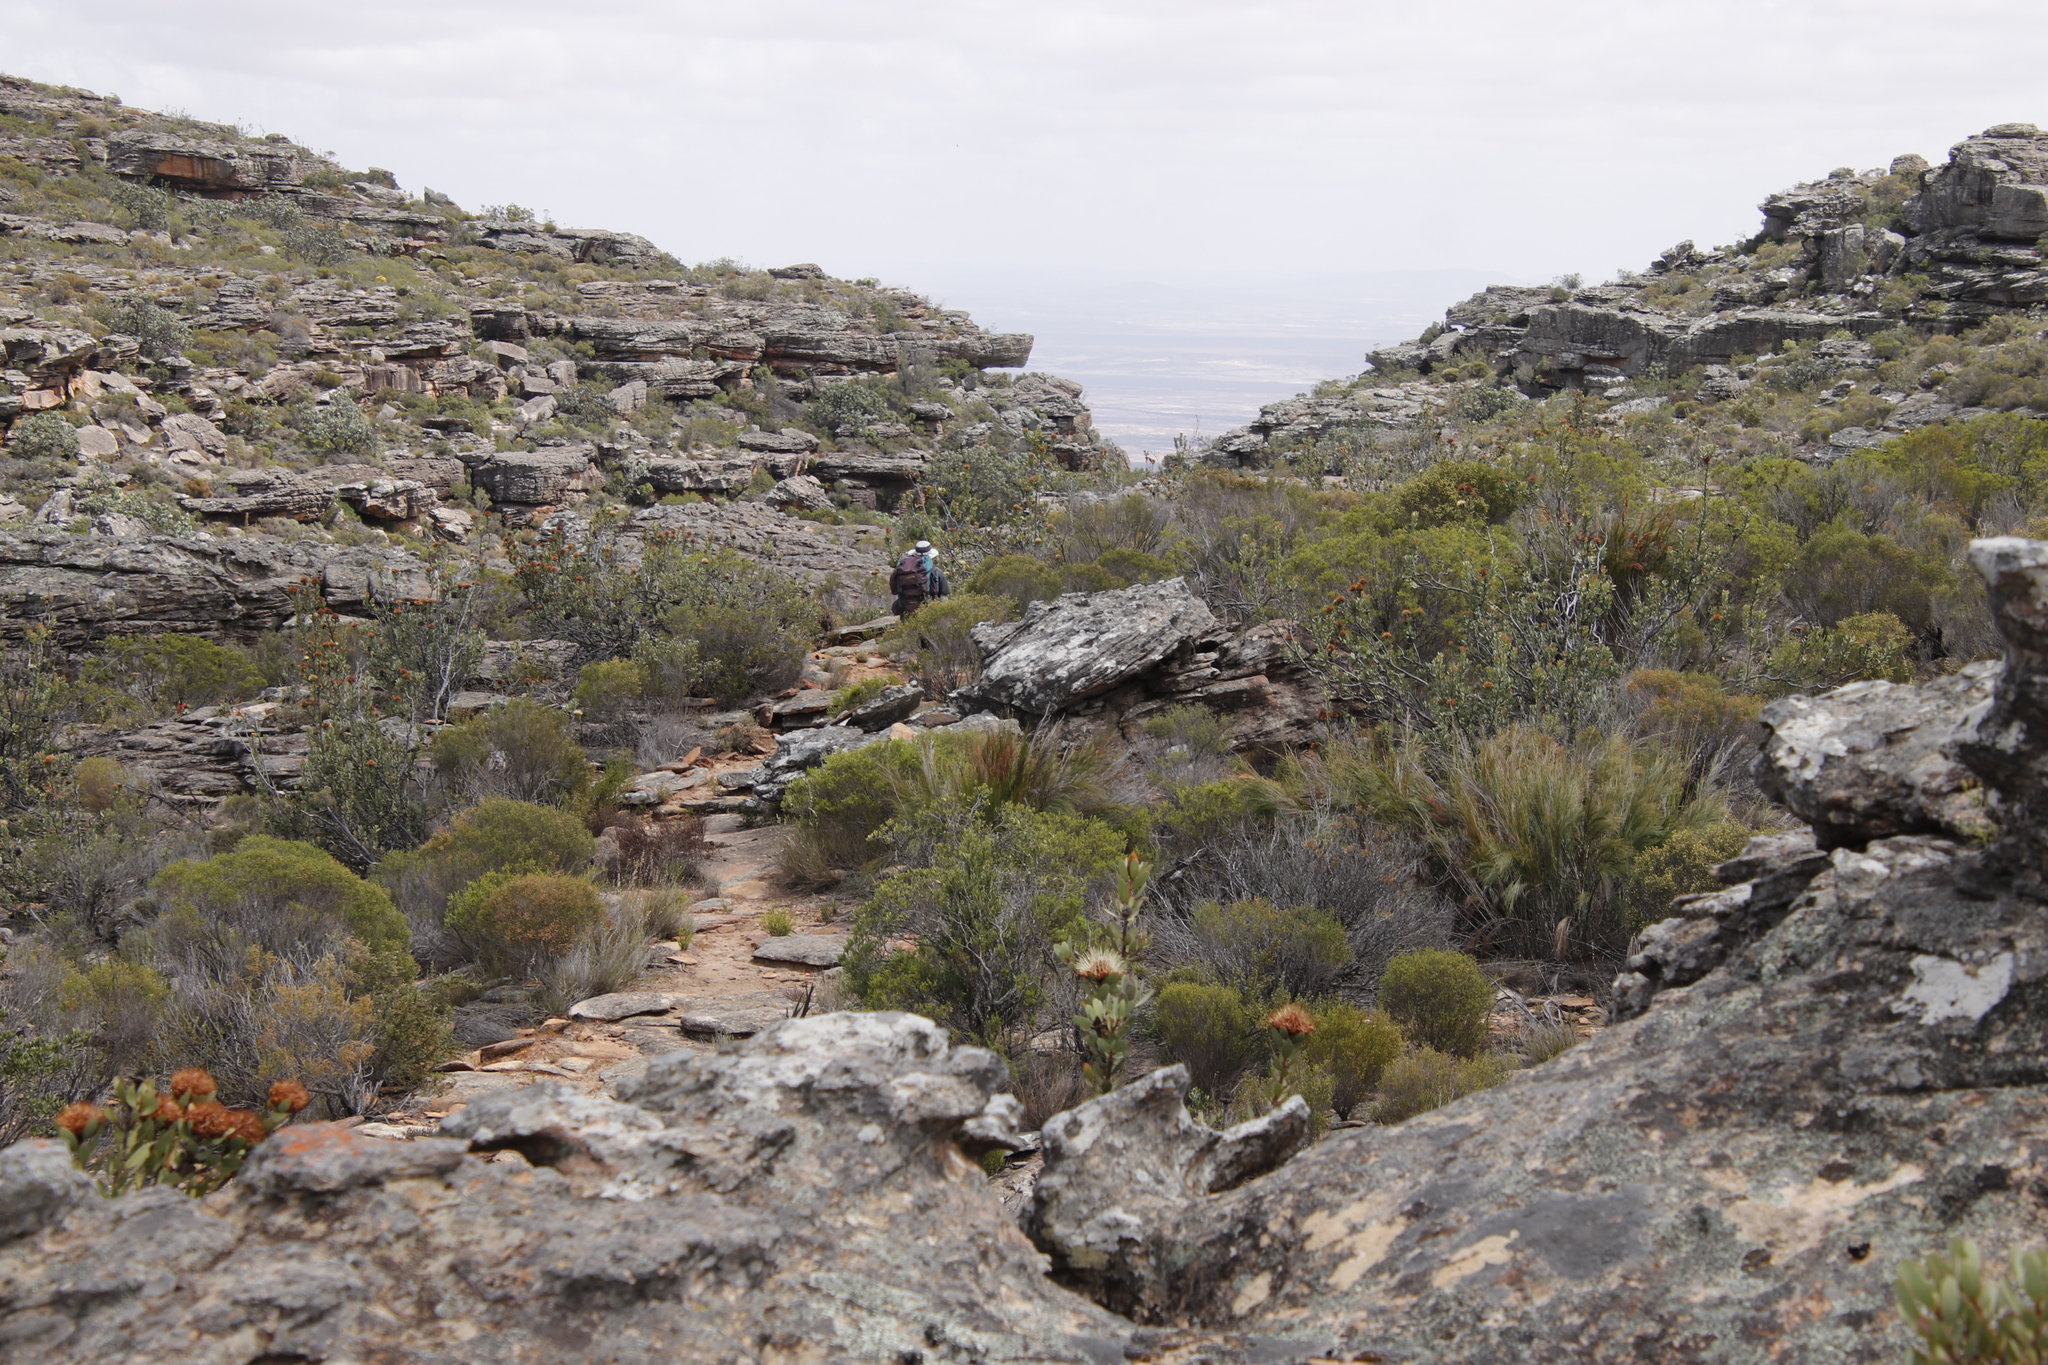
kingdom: Plantae
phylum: Tracheophyta
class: Magnoliopsida
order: Proteales
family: Proteaceae
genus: Protea
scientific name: Protea glabra
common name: Chestnut sugarbush
